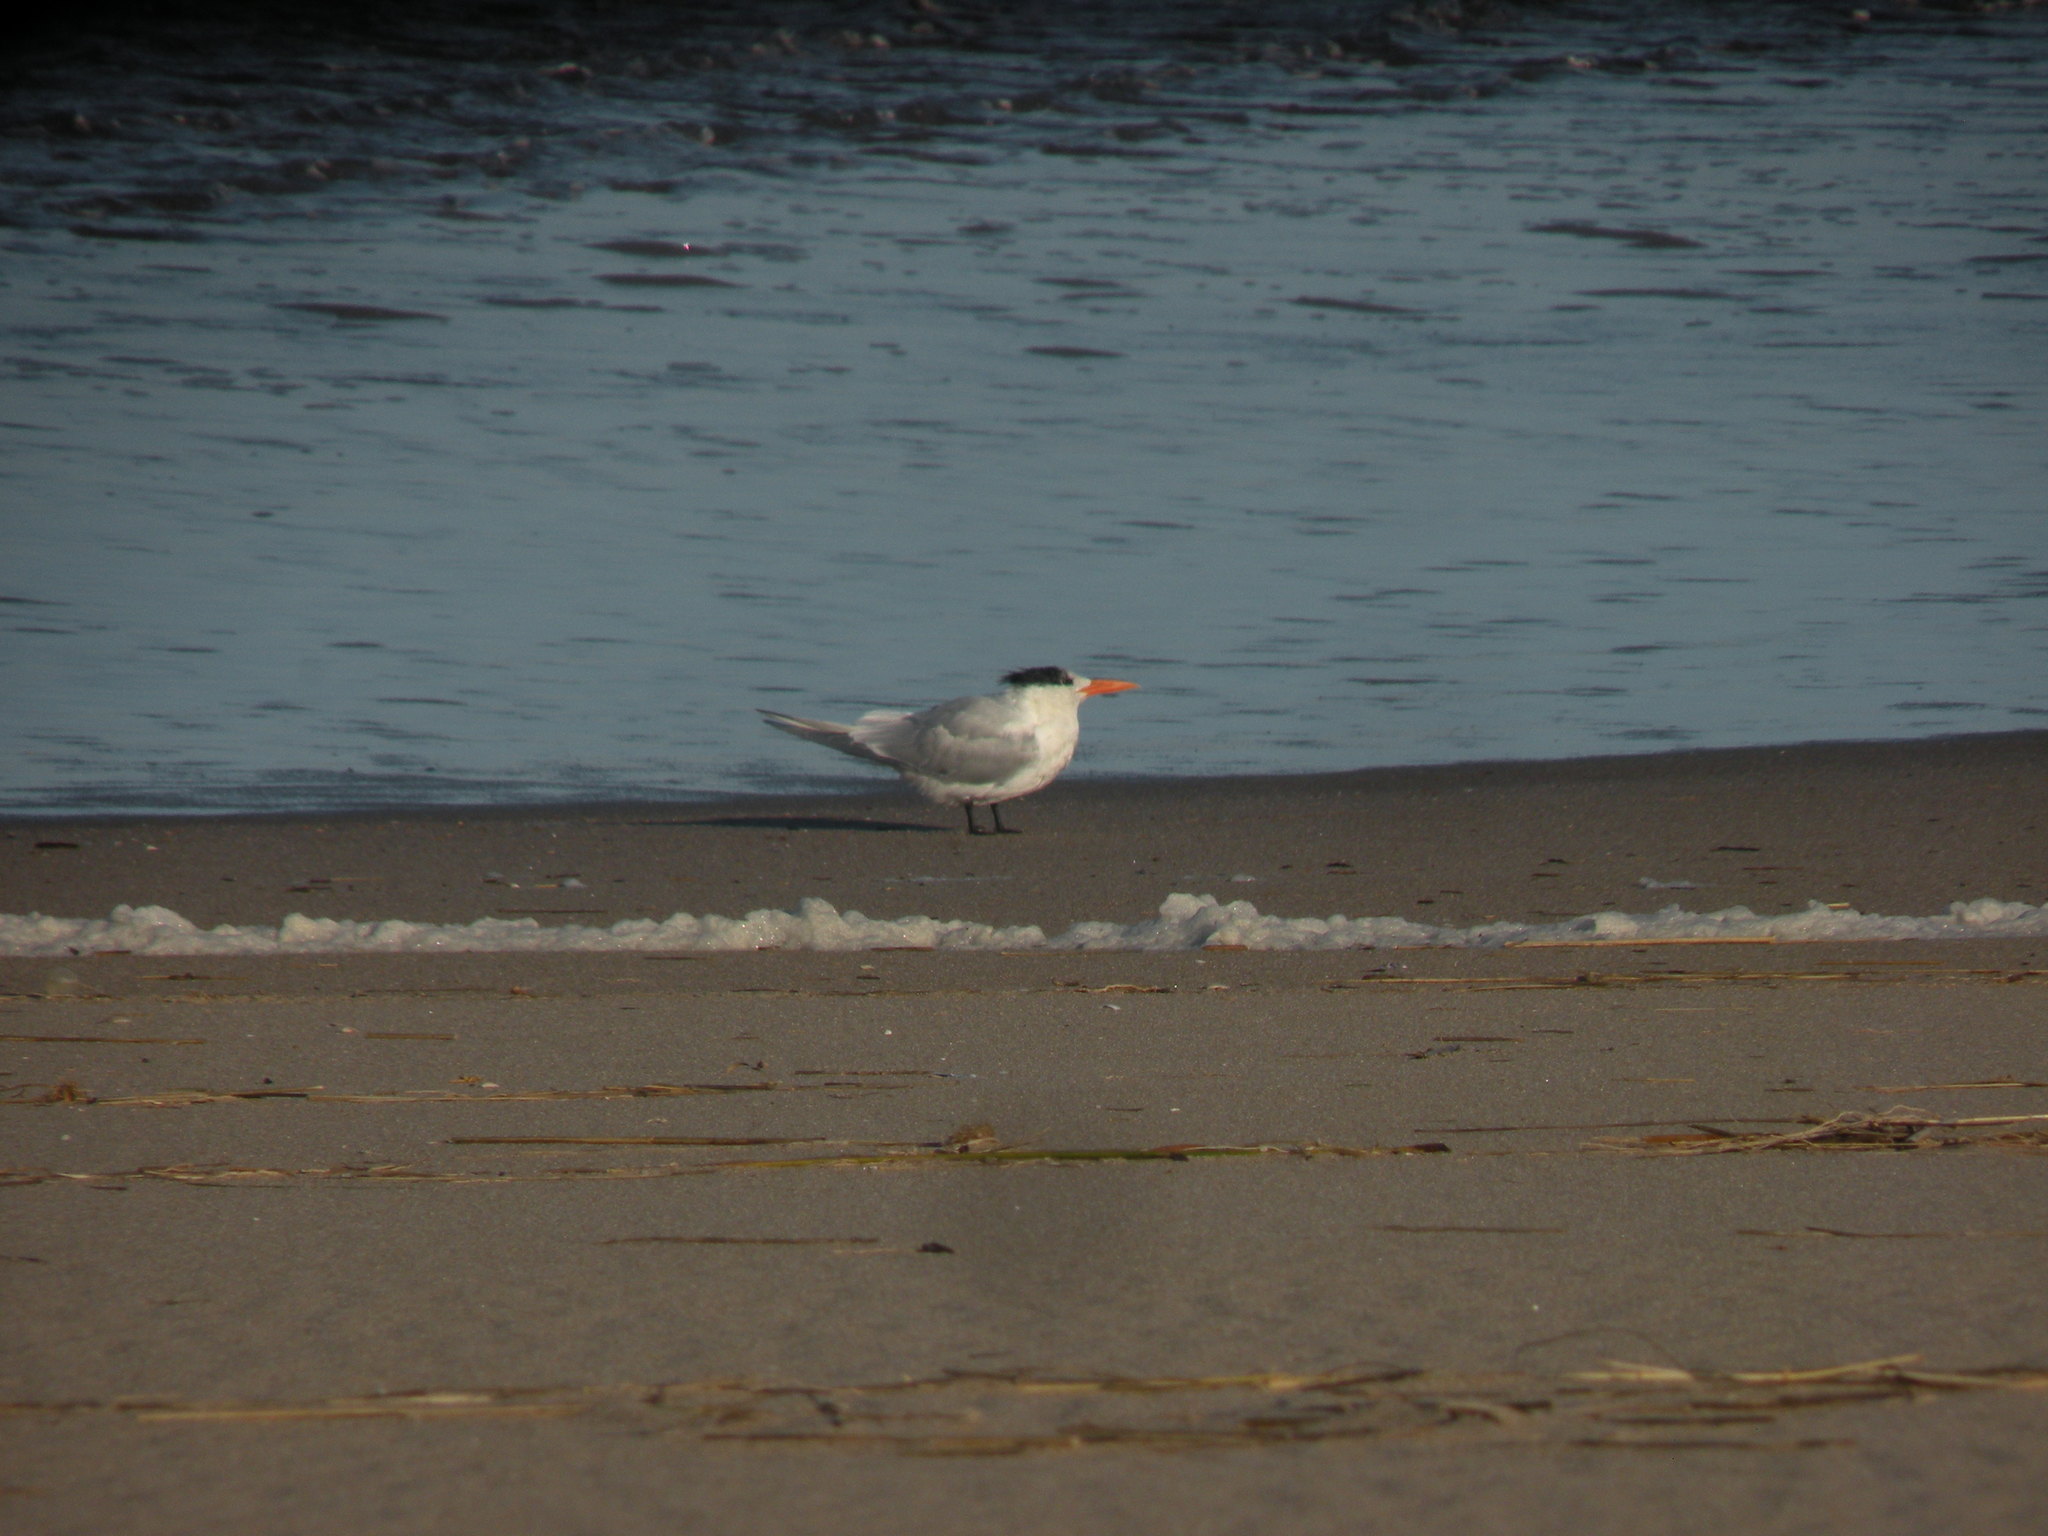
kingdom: Animalia
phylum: Chordata
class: Aves
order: Charadriiformes
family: Laridae
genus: Thalasseus
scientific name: Thalasseus maximus
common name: Royal tern
